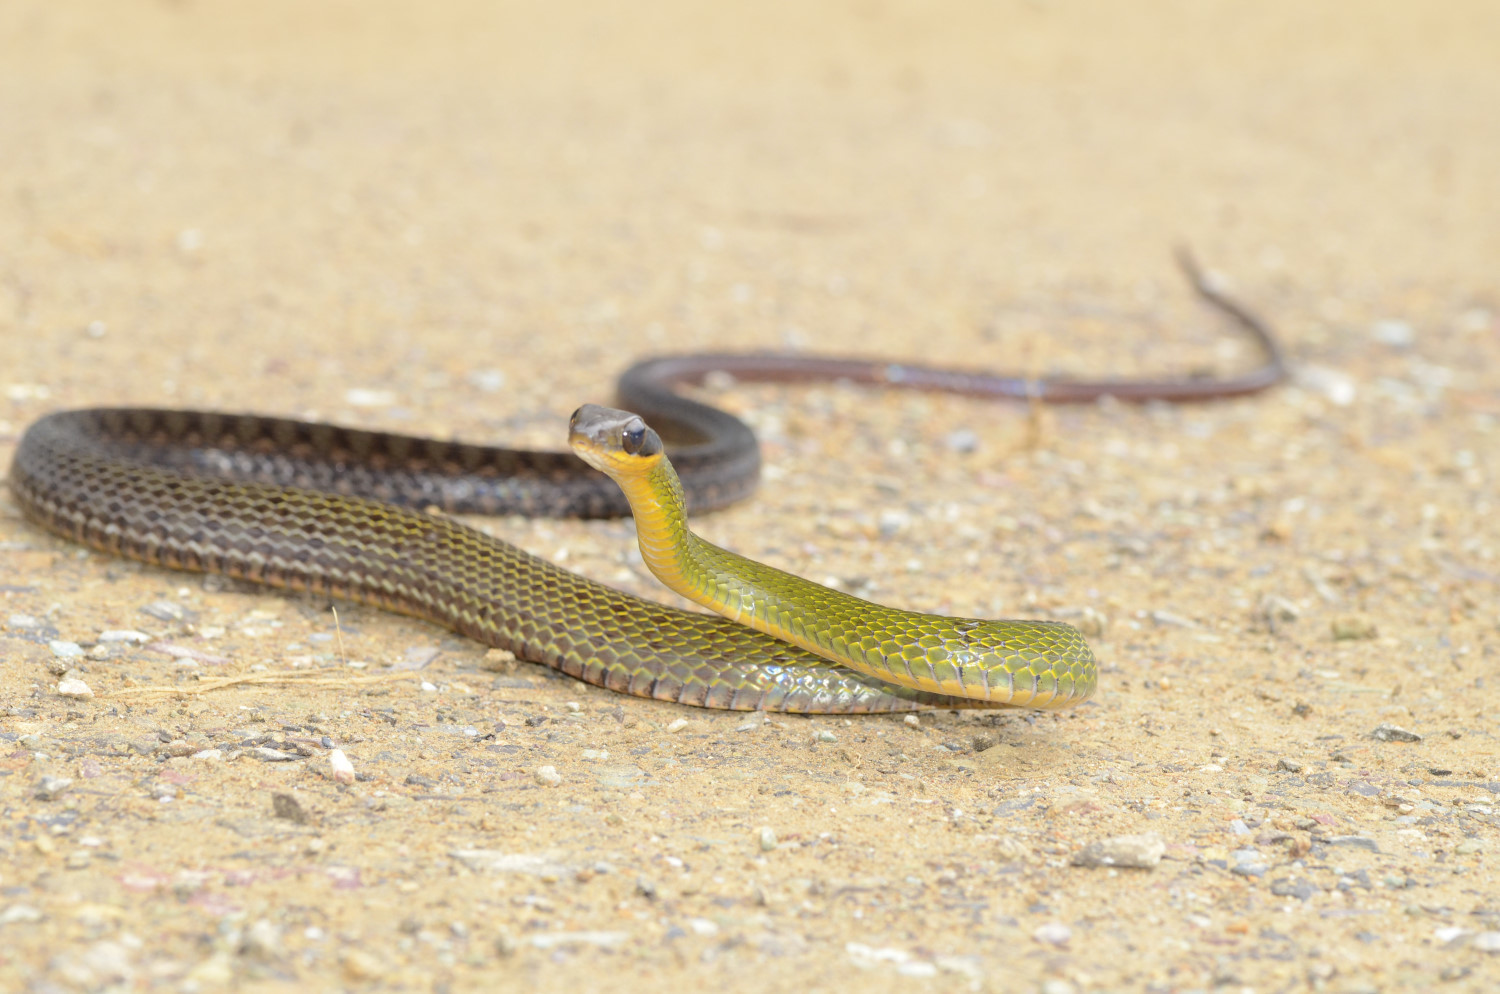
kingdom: Animalia
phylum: Chordata
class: Squamata
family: Colubridae
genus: Dendrophidion
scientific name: Dendrophidion clarkii
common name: Clark's forest racer
